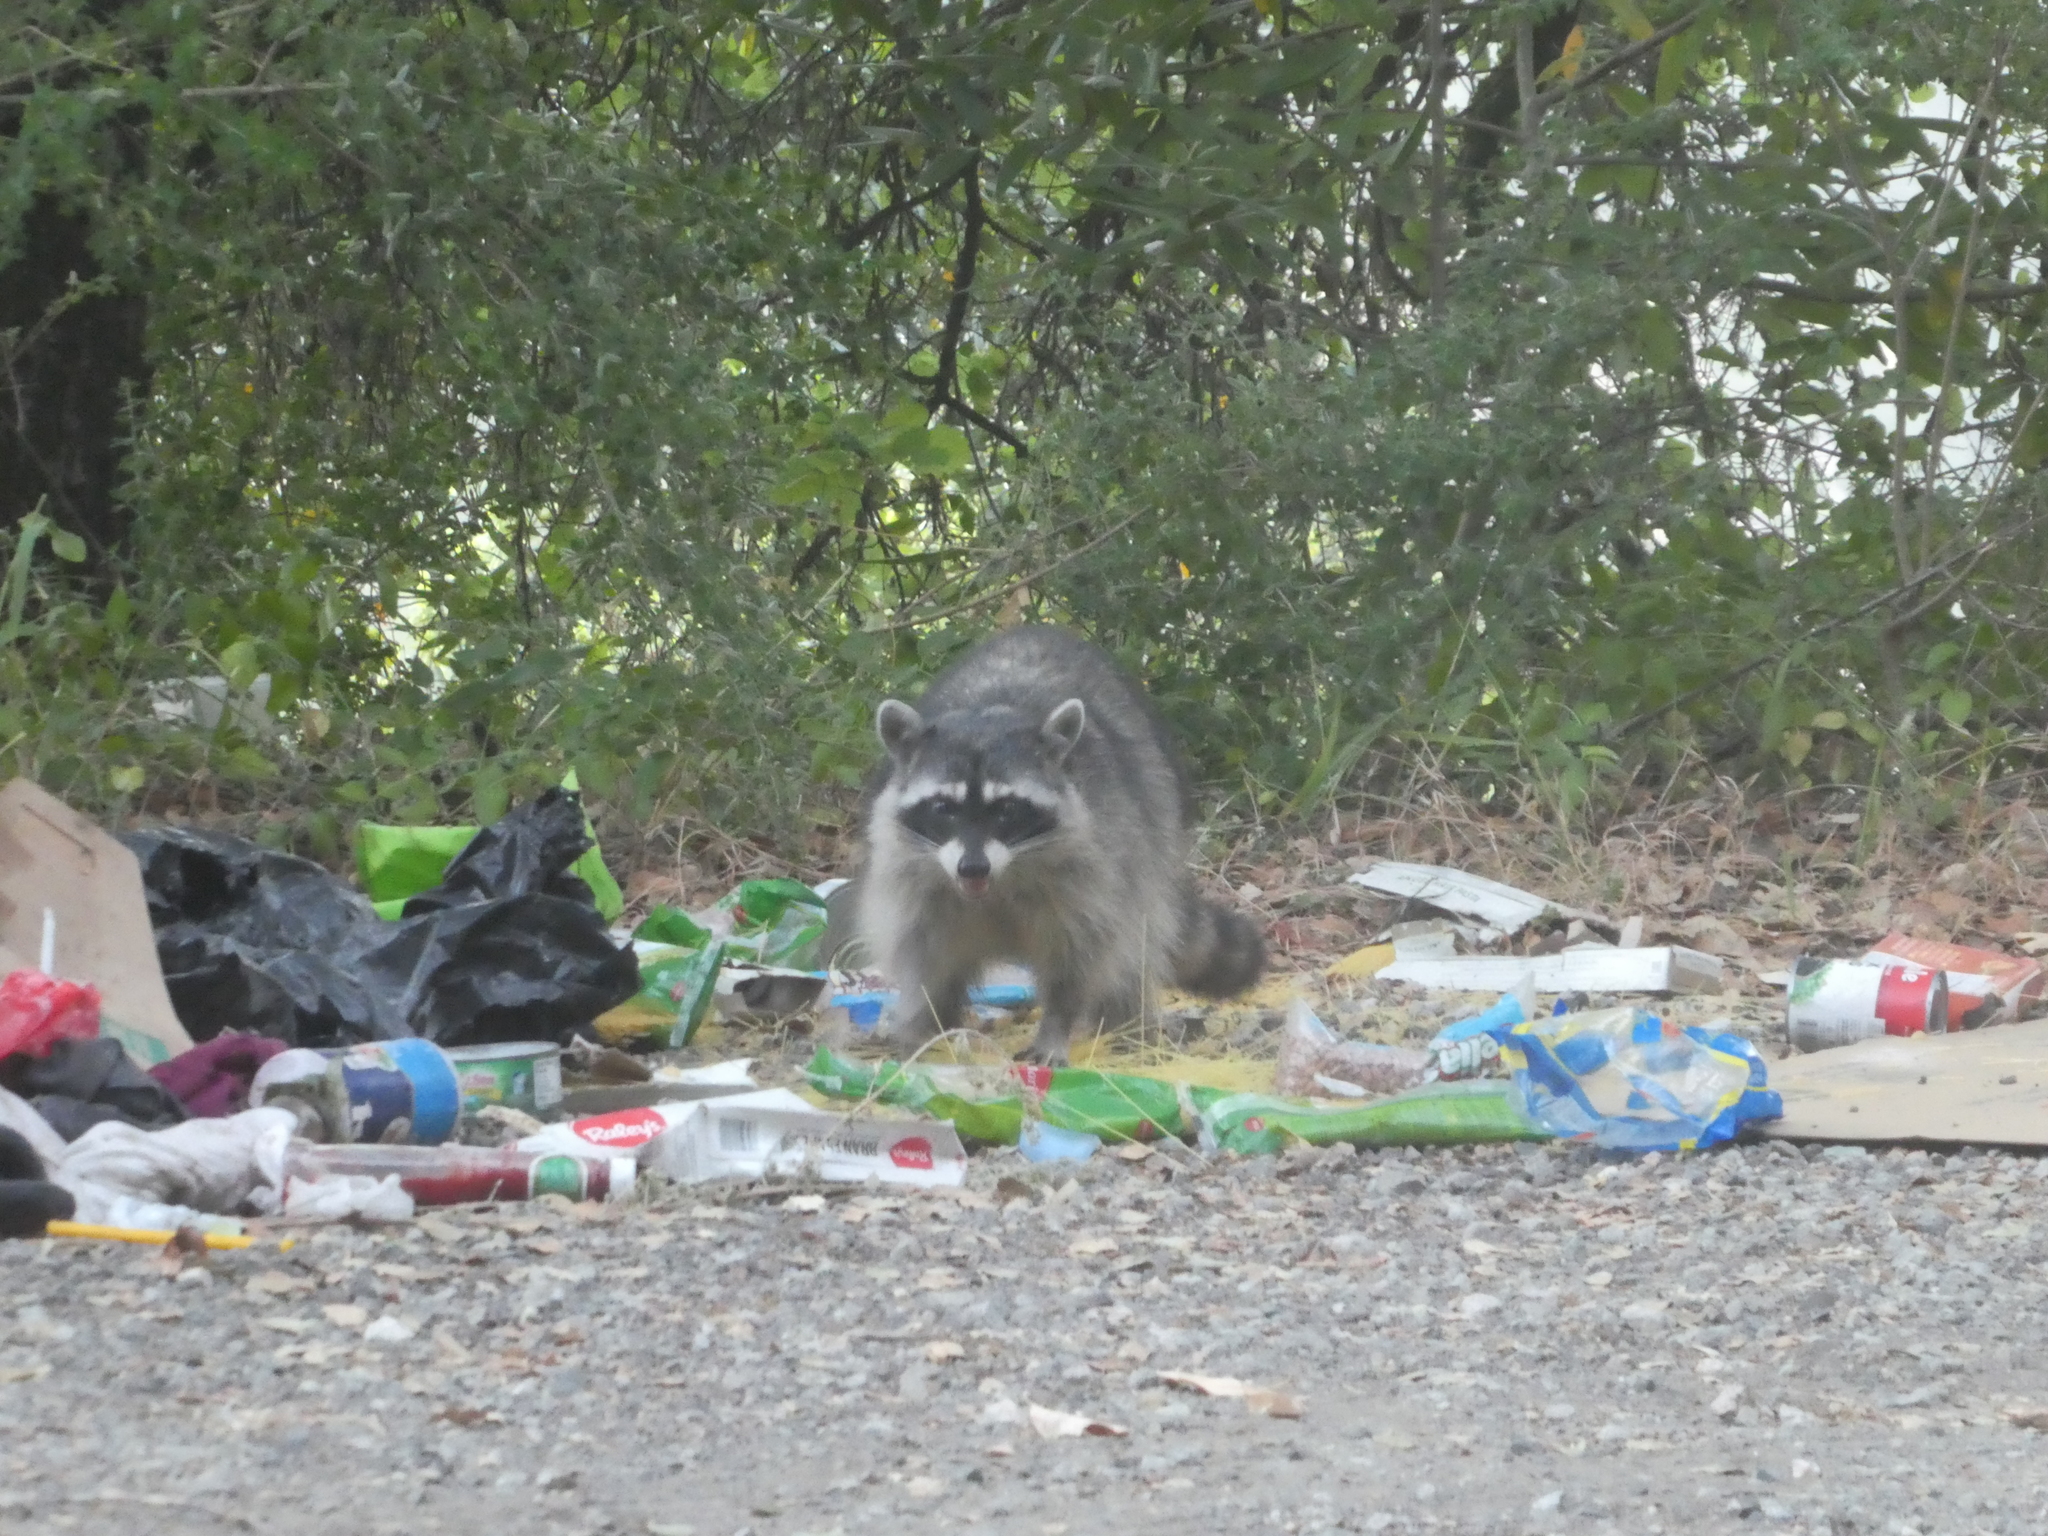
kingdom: Animalia
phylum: Chordata
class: Mammalia
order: Carnivora
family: Procyonidae
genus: Procyon
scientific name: Procyon lotor
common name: Raccoon
